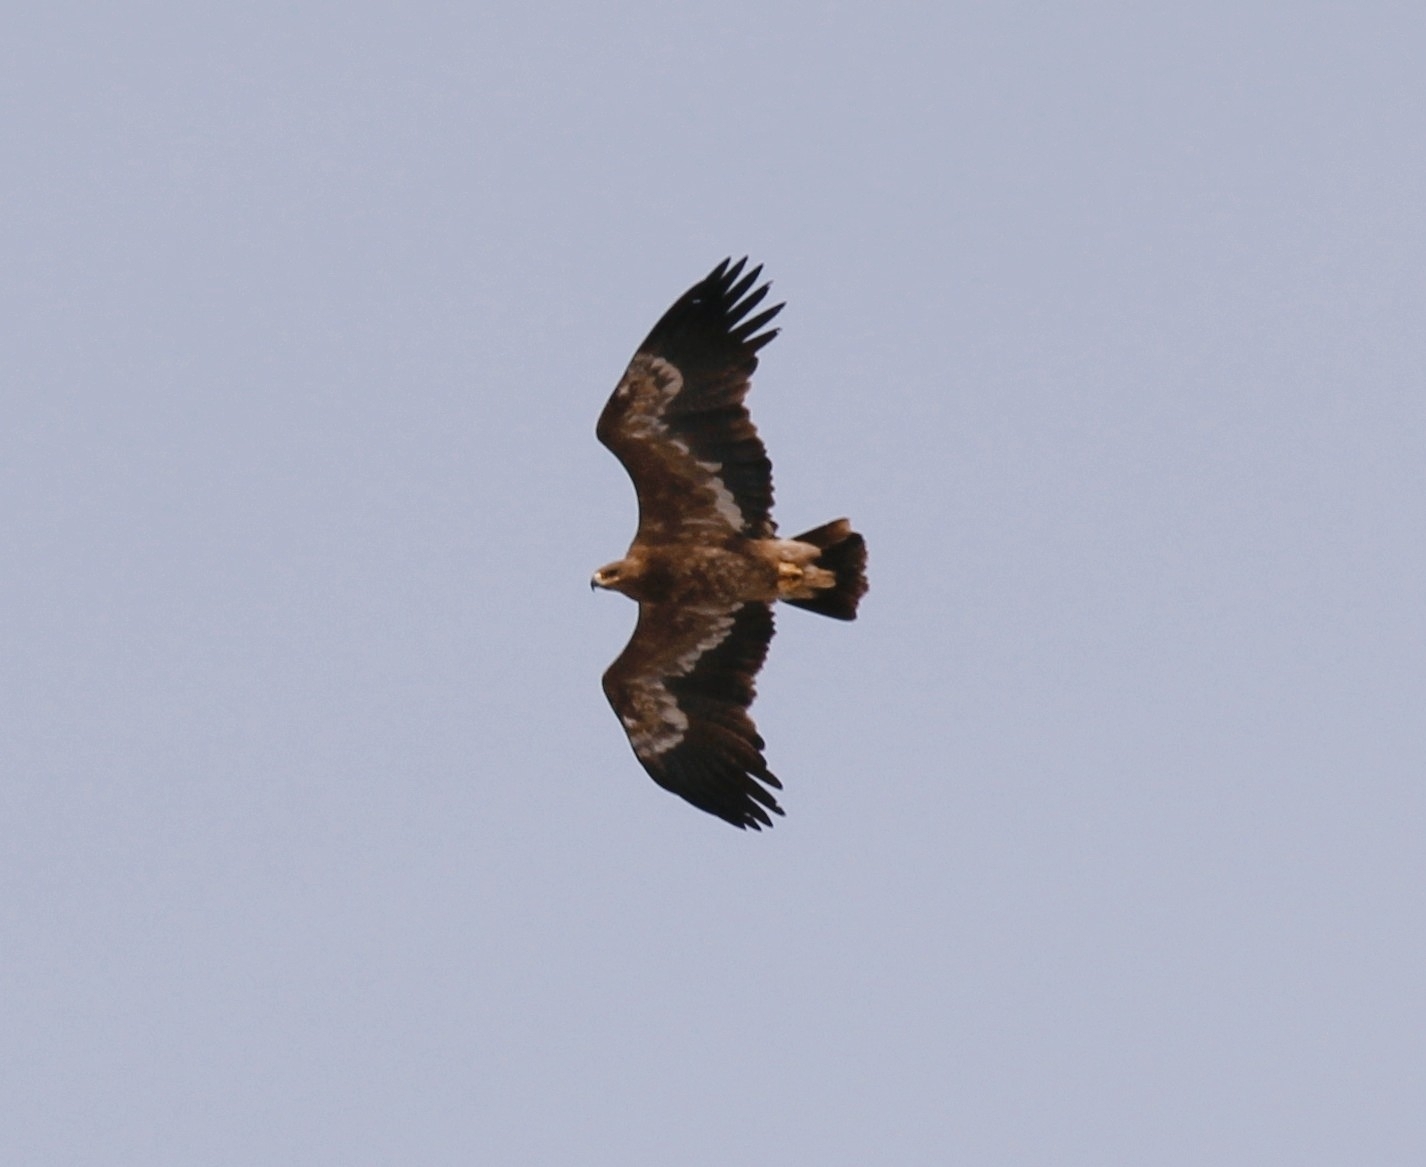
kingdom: Animalia
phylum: Chordata
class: Aves
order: Accipitriformes
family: Accipitridae
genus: Aquila
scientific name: Aquila nipalensis
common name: Steppe eagle
